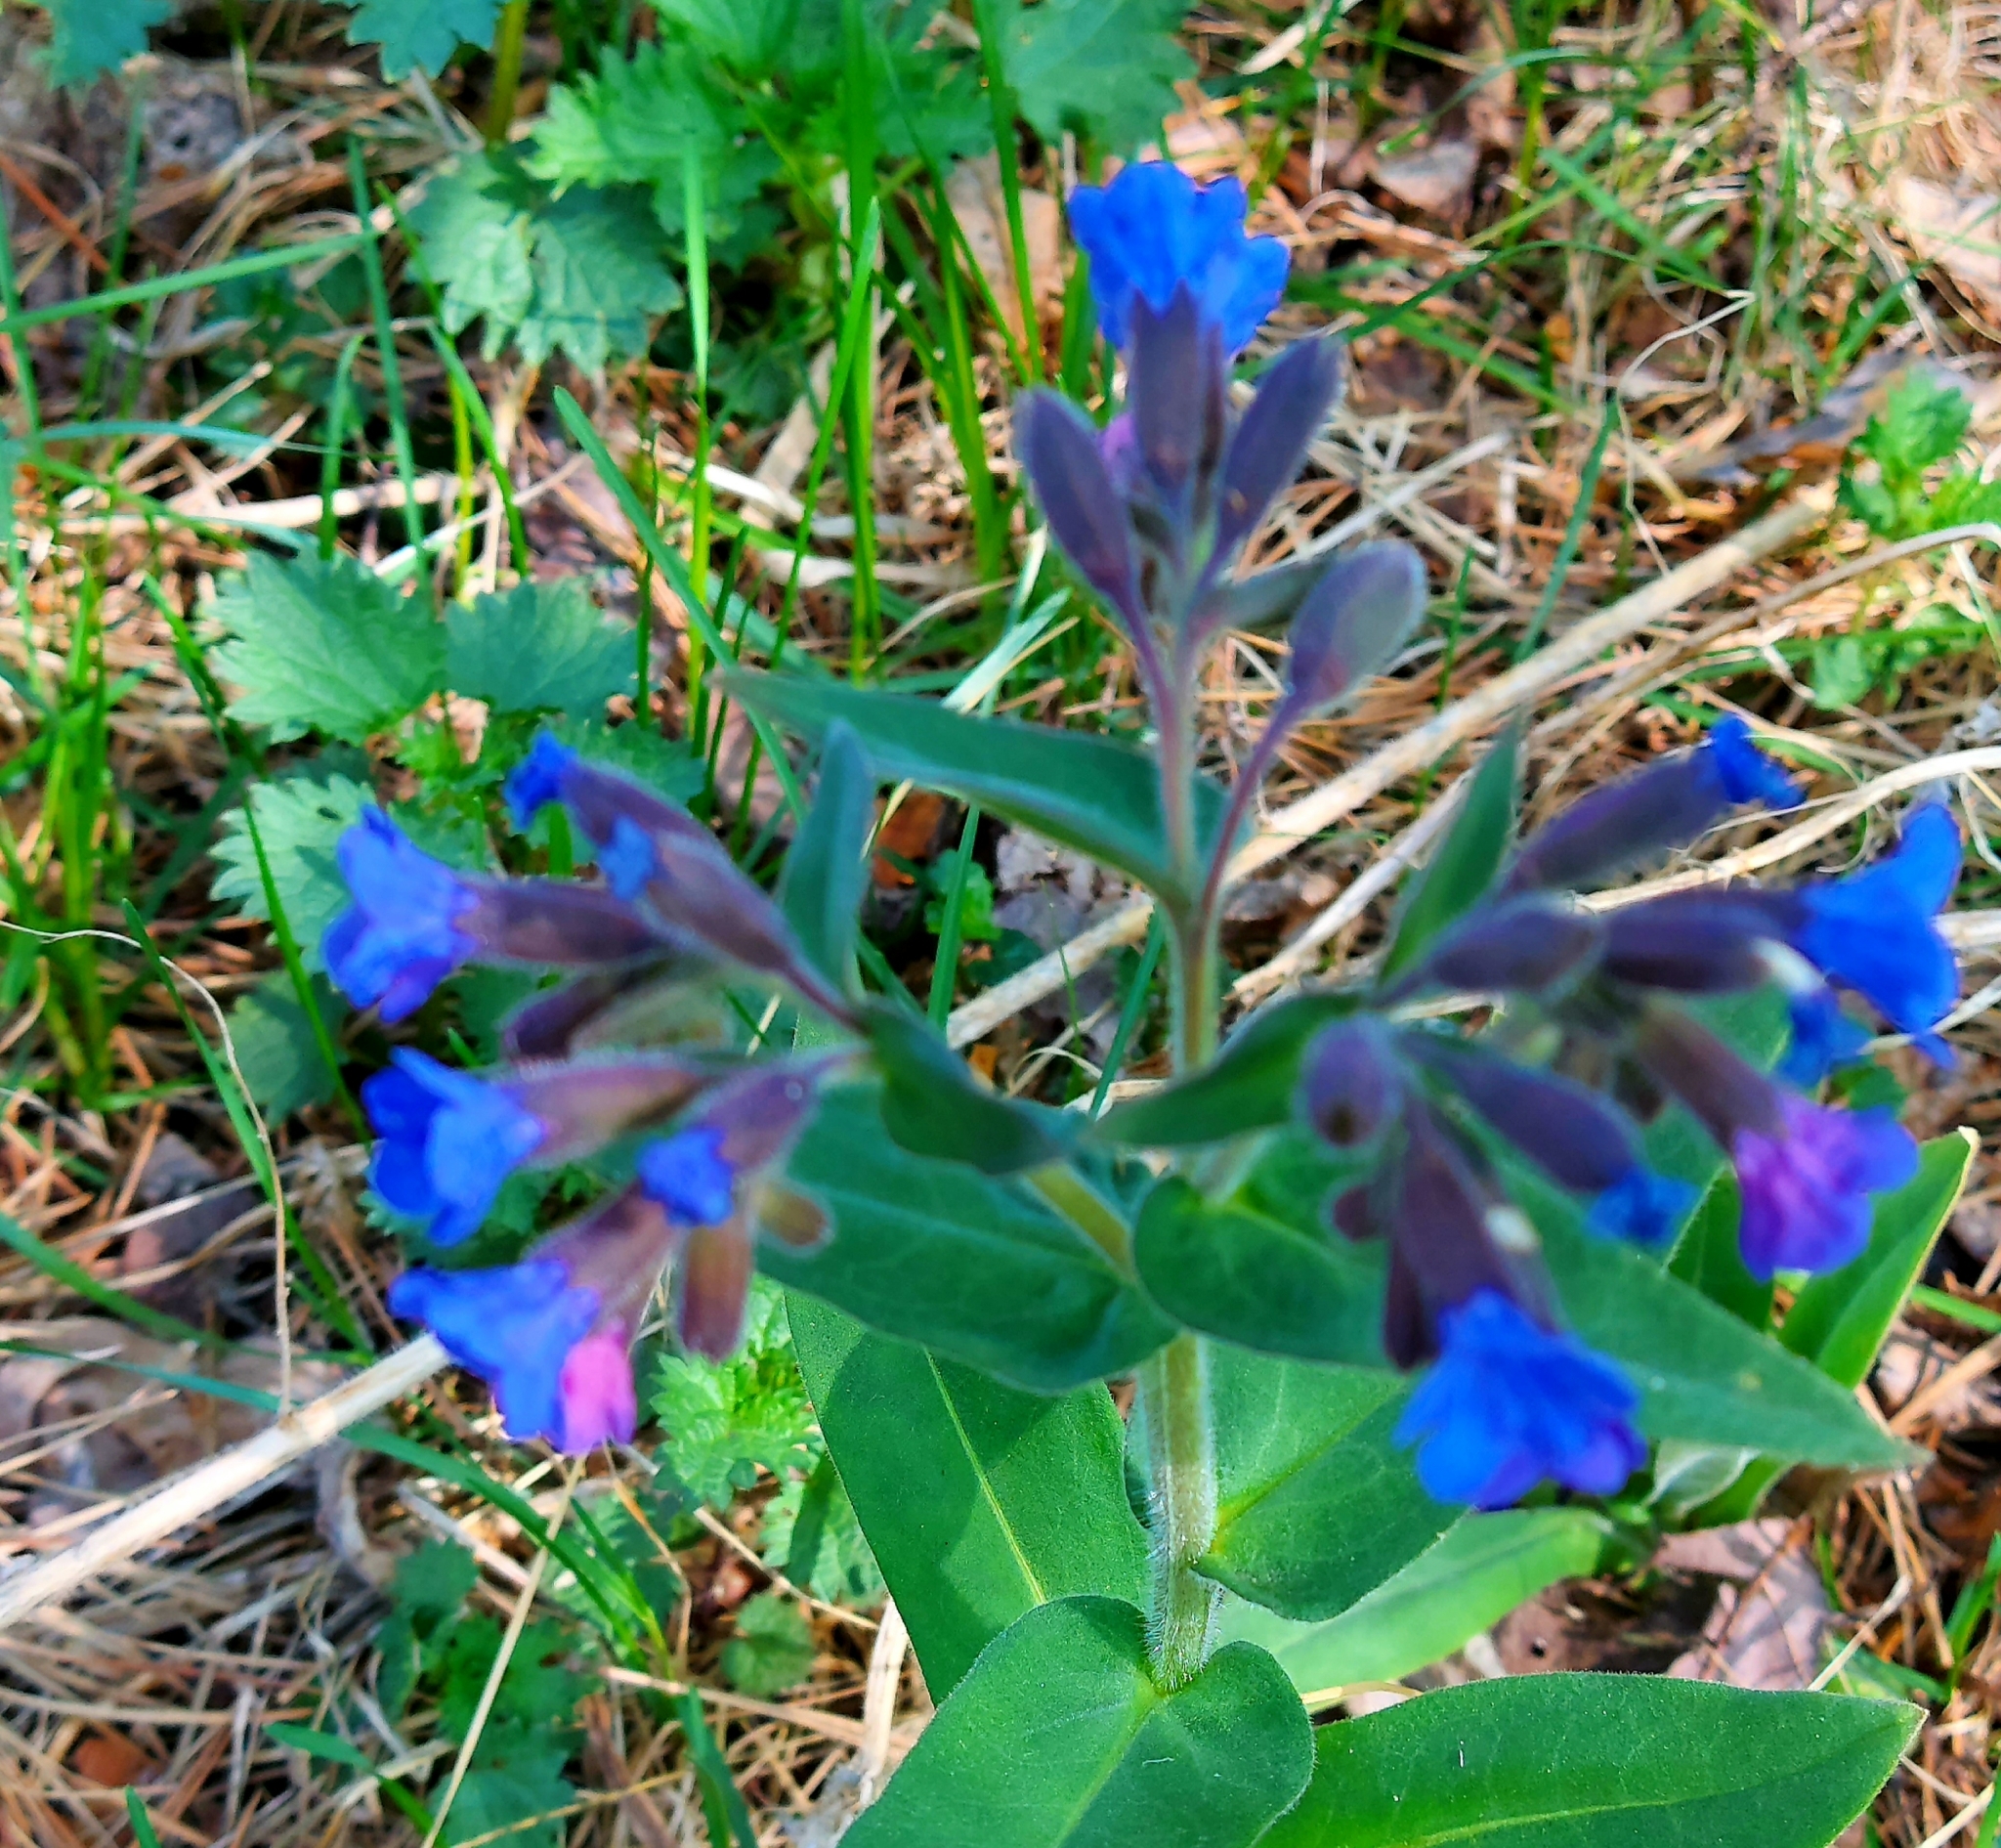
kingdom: Plantae
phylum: Tracheophyta
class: Magnoliopsida
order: Boraginales
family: Boraginaceae
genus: Pulmonaria
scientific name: Pulmonaria mollis
